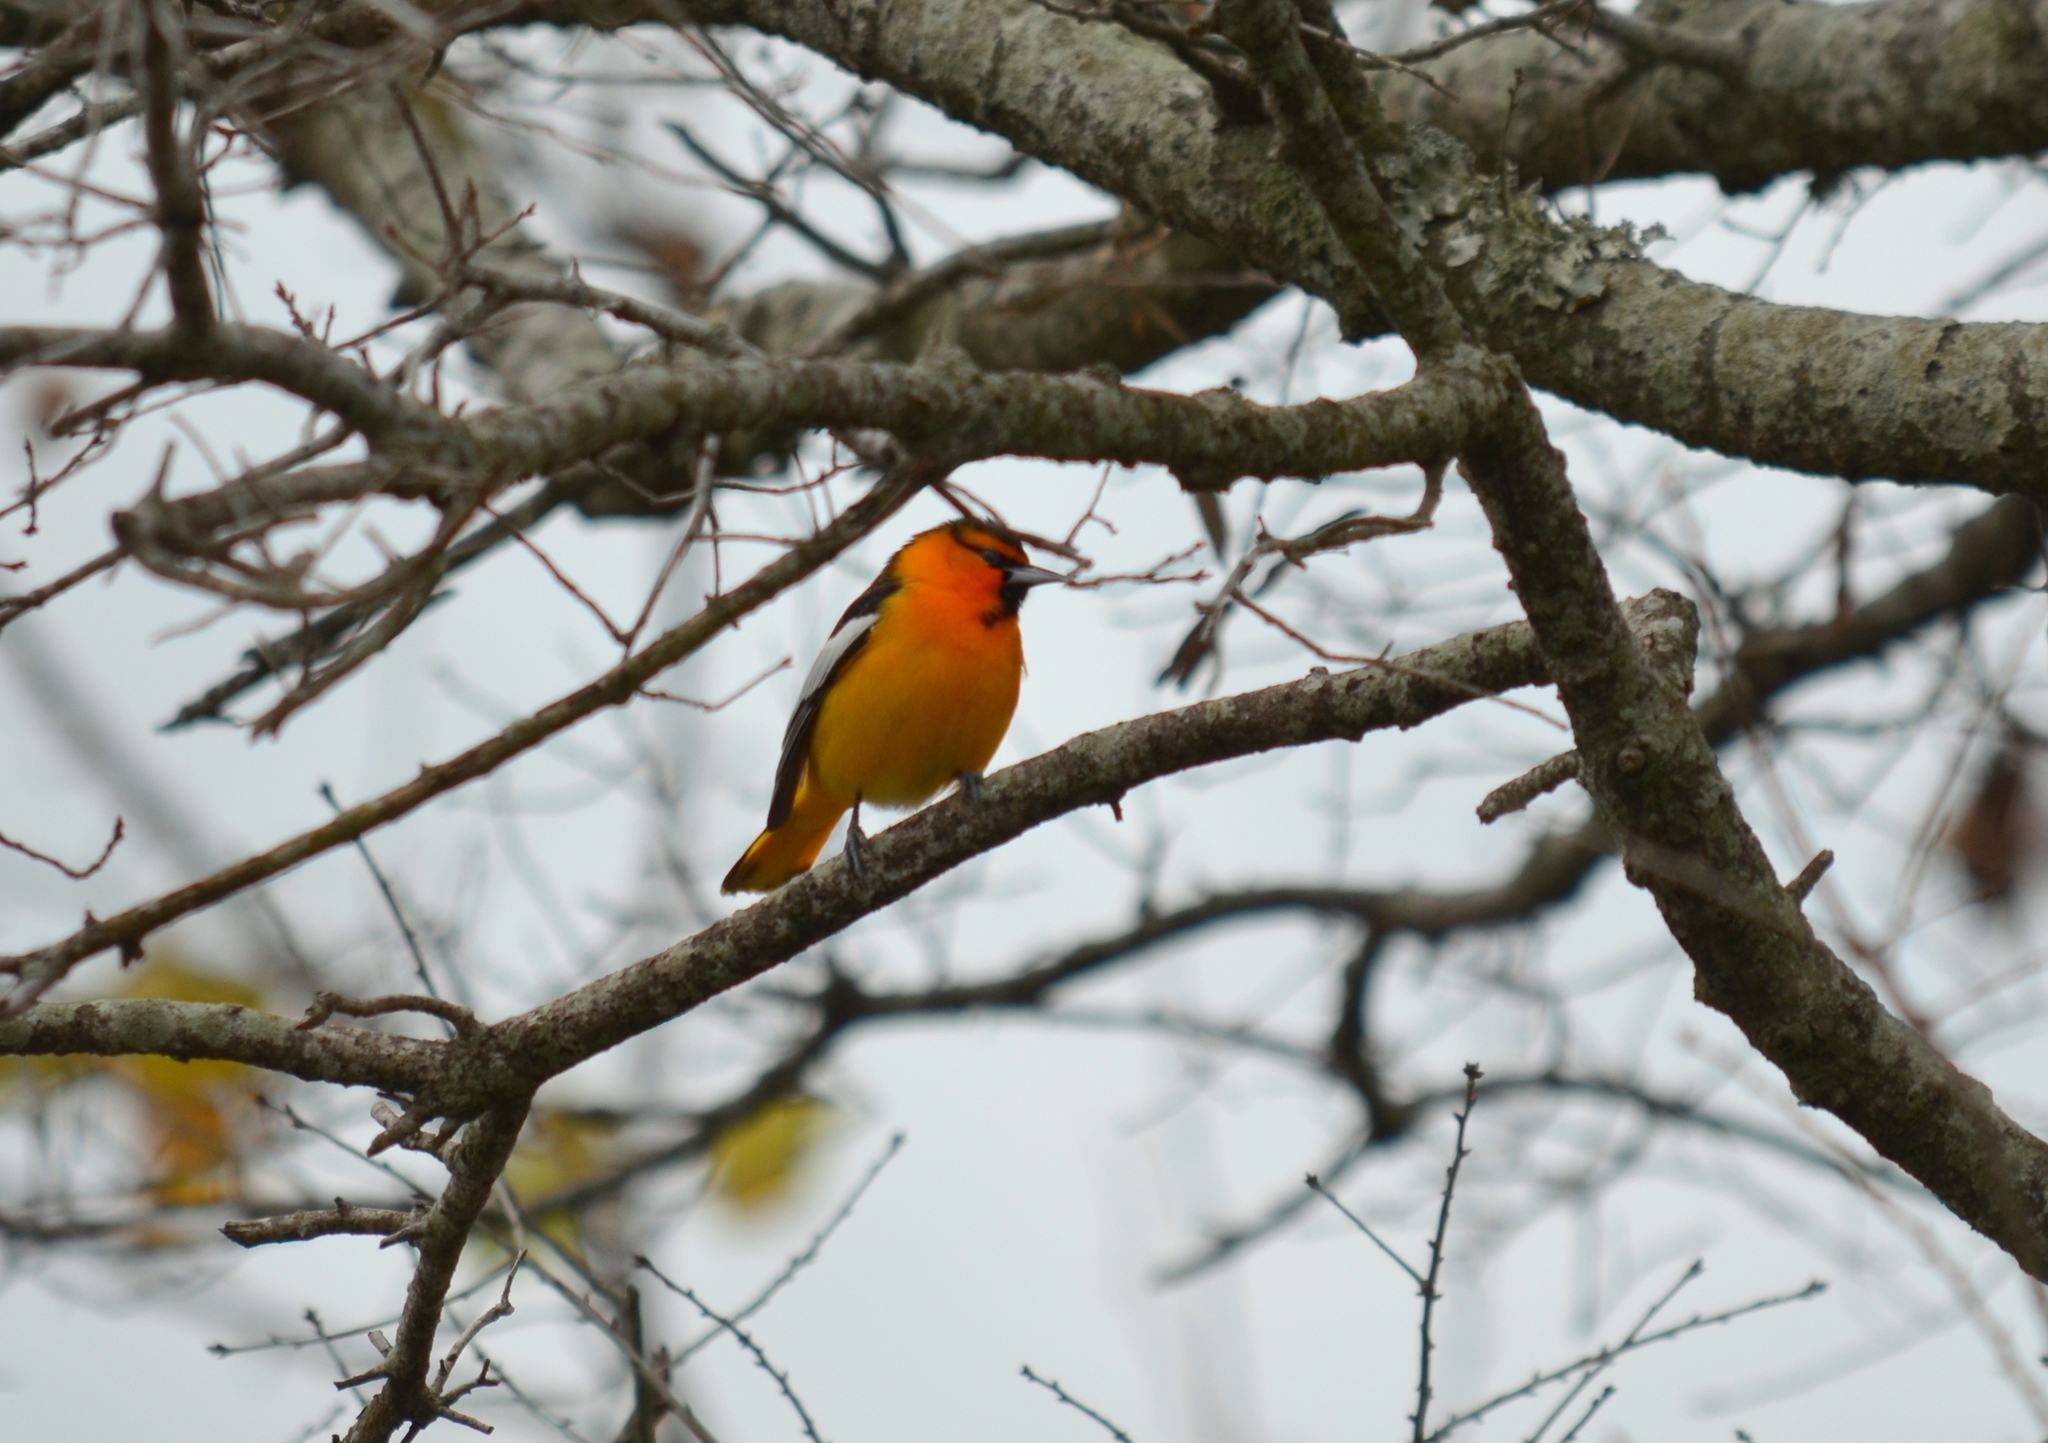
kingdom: Animalia
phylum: Chordata
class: Aves
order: Passeriformes
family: Icteridae
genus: Icterus
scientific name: Icterus bullockii
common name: Bullock's oriole
